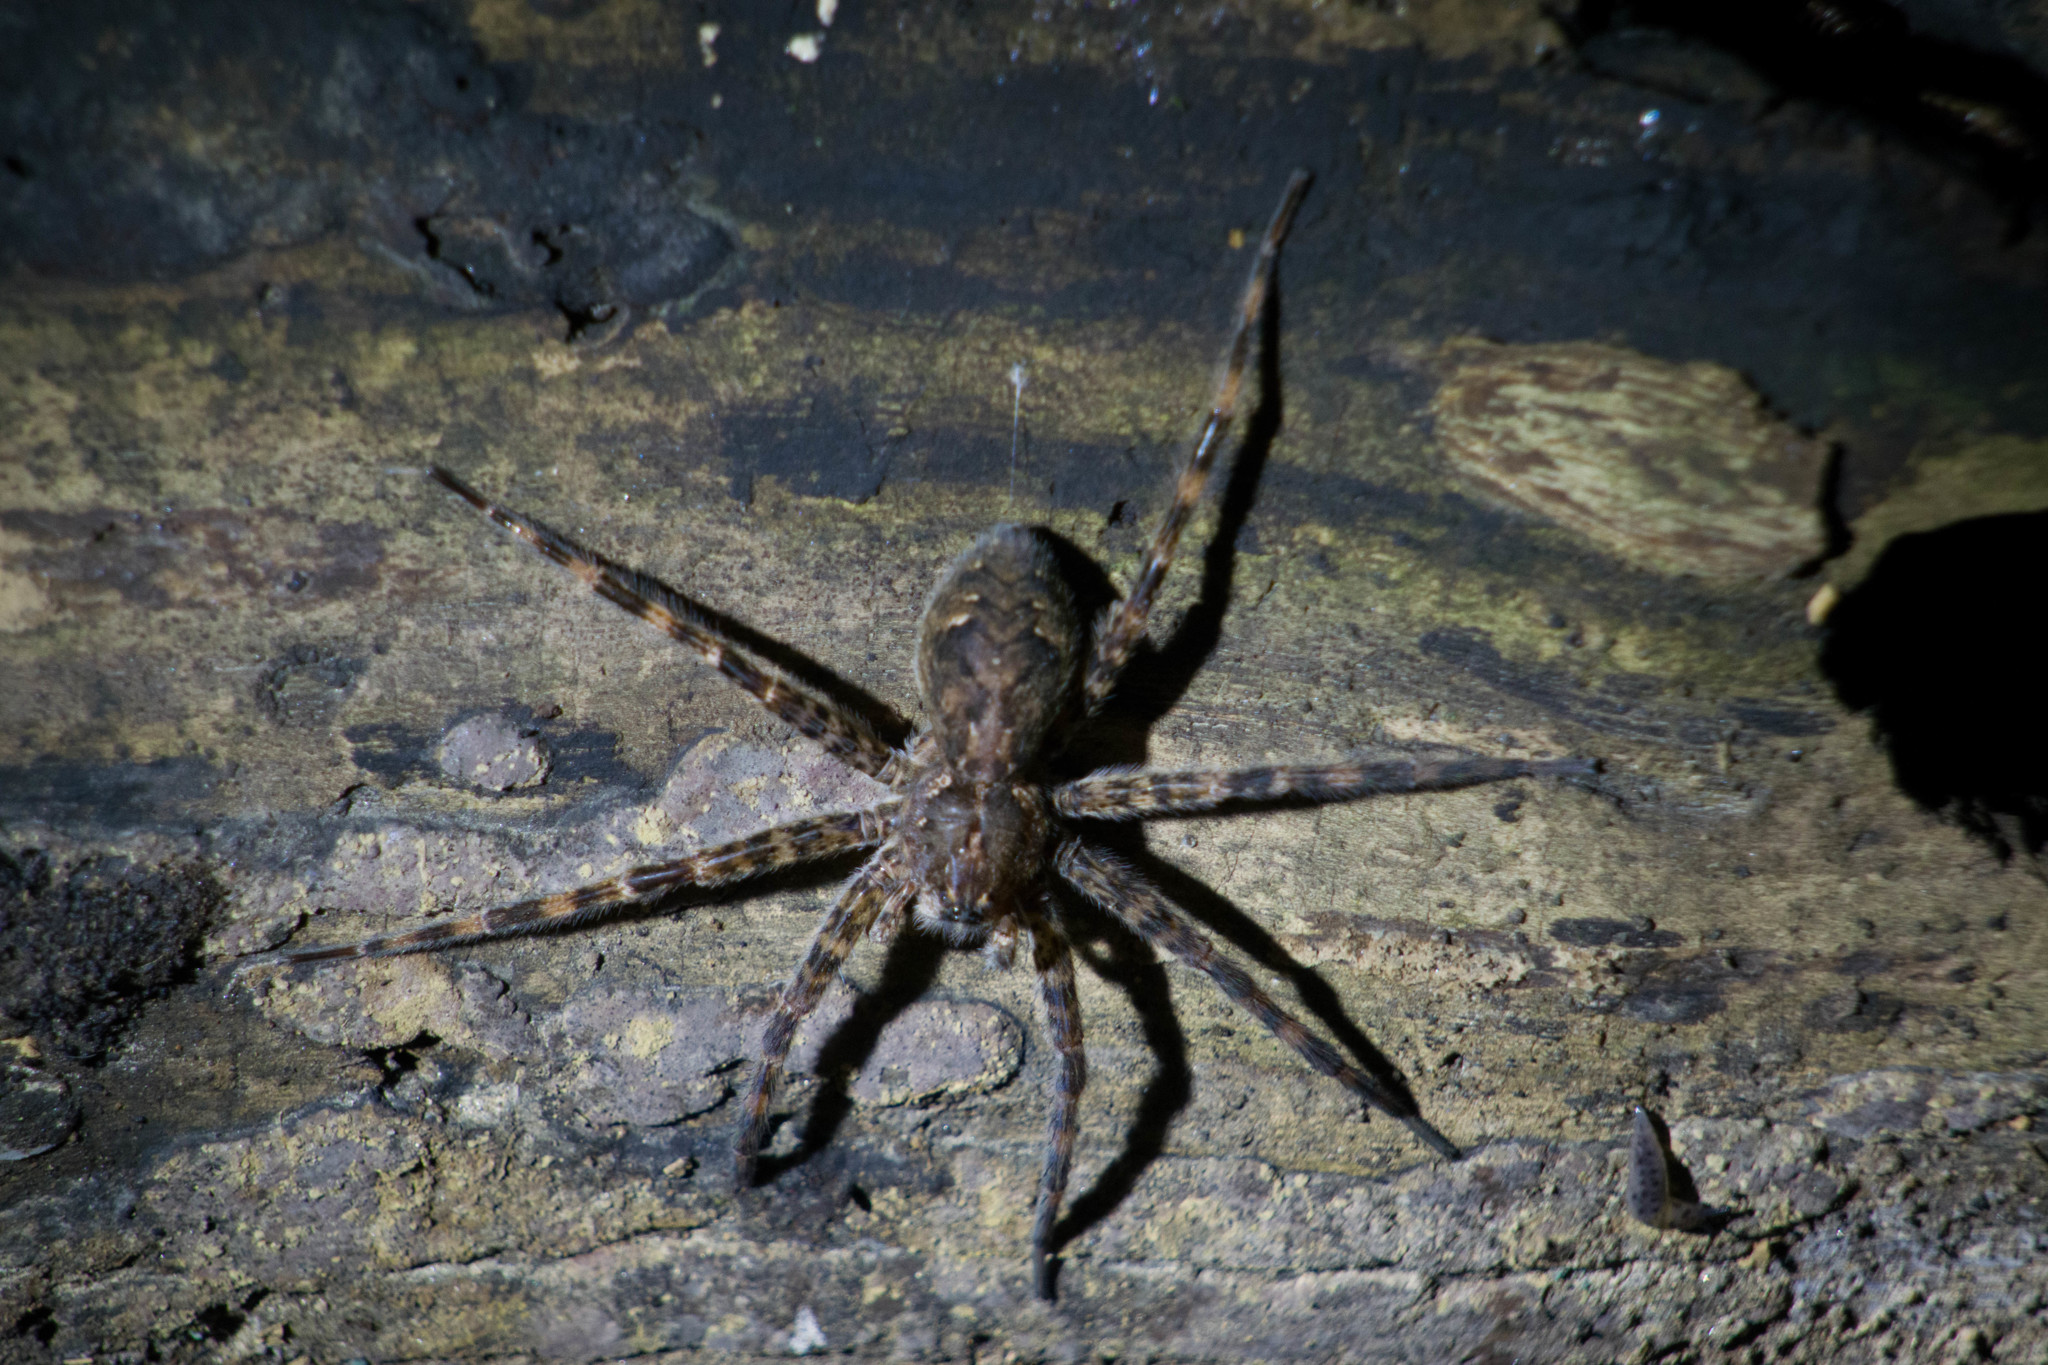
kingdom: Animalia
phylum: Arthropoda
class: Arachnida
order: Araneae
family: Pisauridae
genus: Dolomedes
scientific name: Dolomedes tenebrosus
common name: Dark fishing spider
